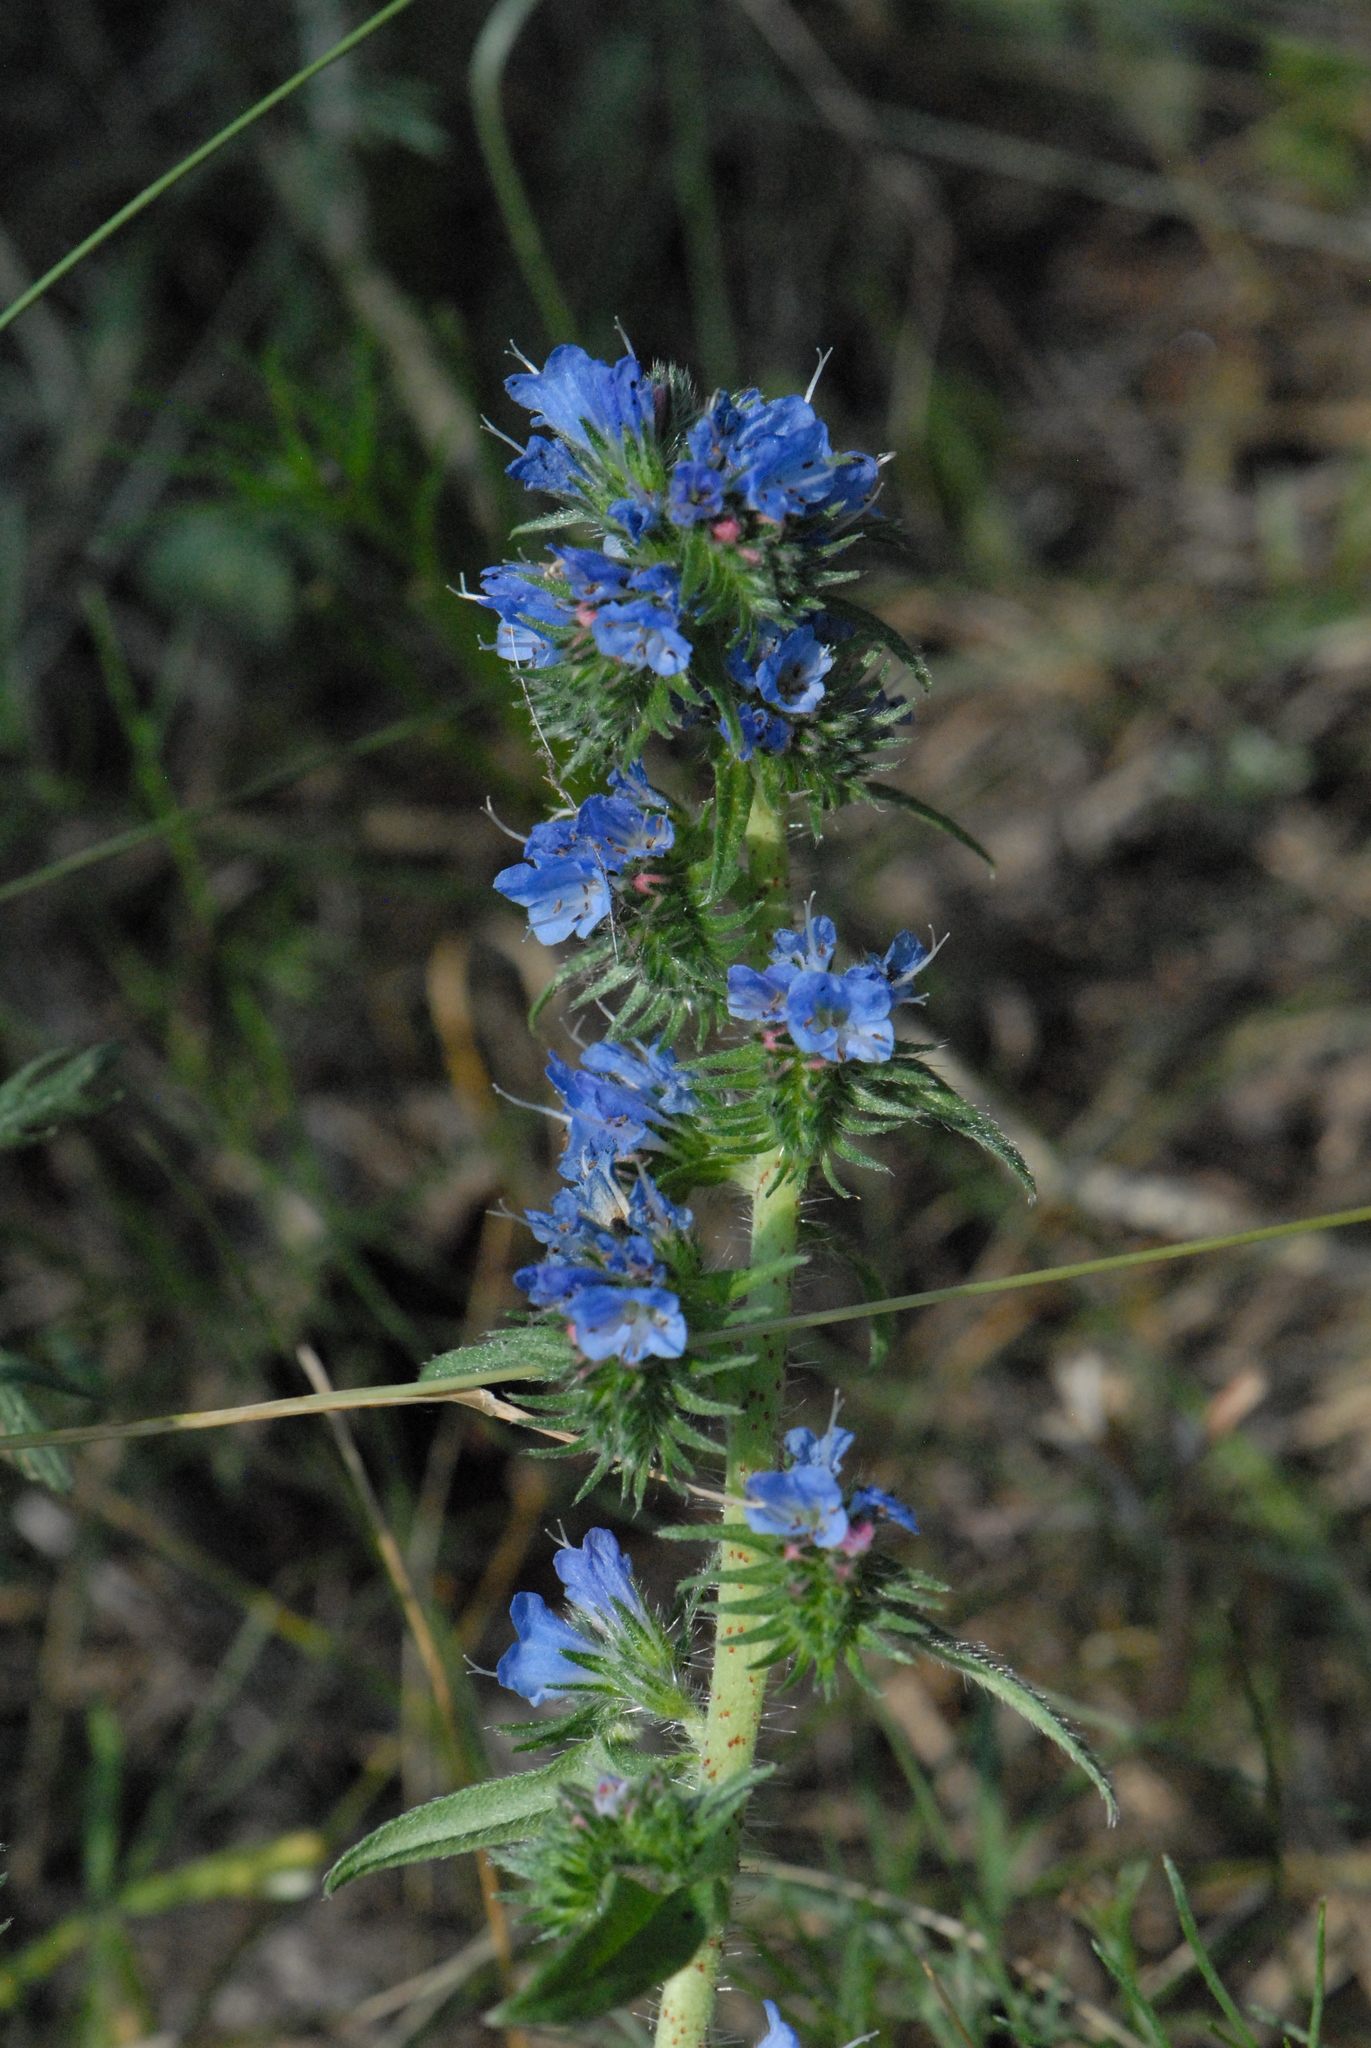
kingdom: Plantae
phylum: Tracheophyta
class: Magnoliopsida
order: Boraginales
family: Boraginaceae
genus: Echium
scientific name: Echium vulgare
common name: Common viper's bugloss
